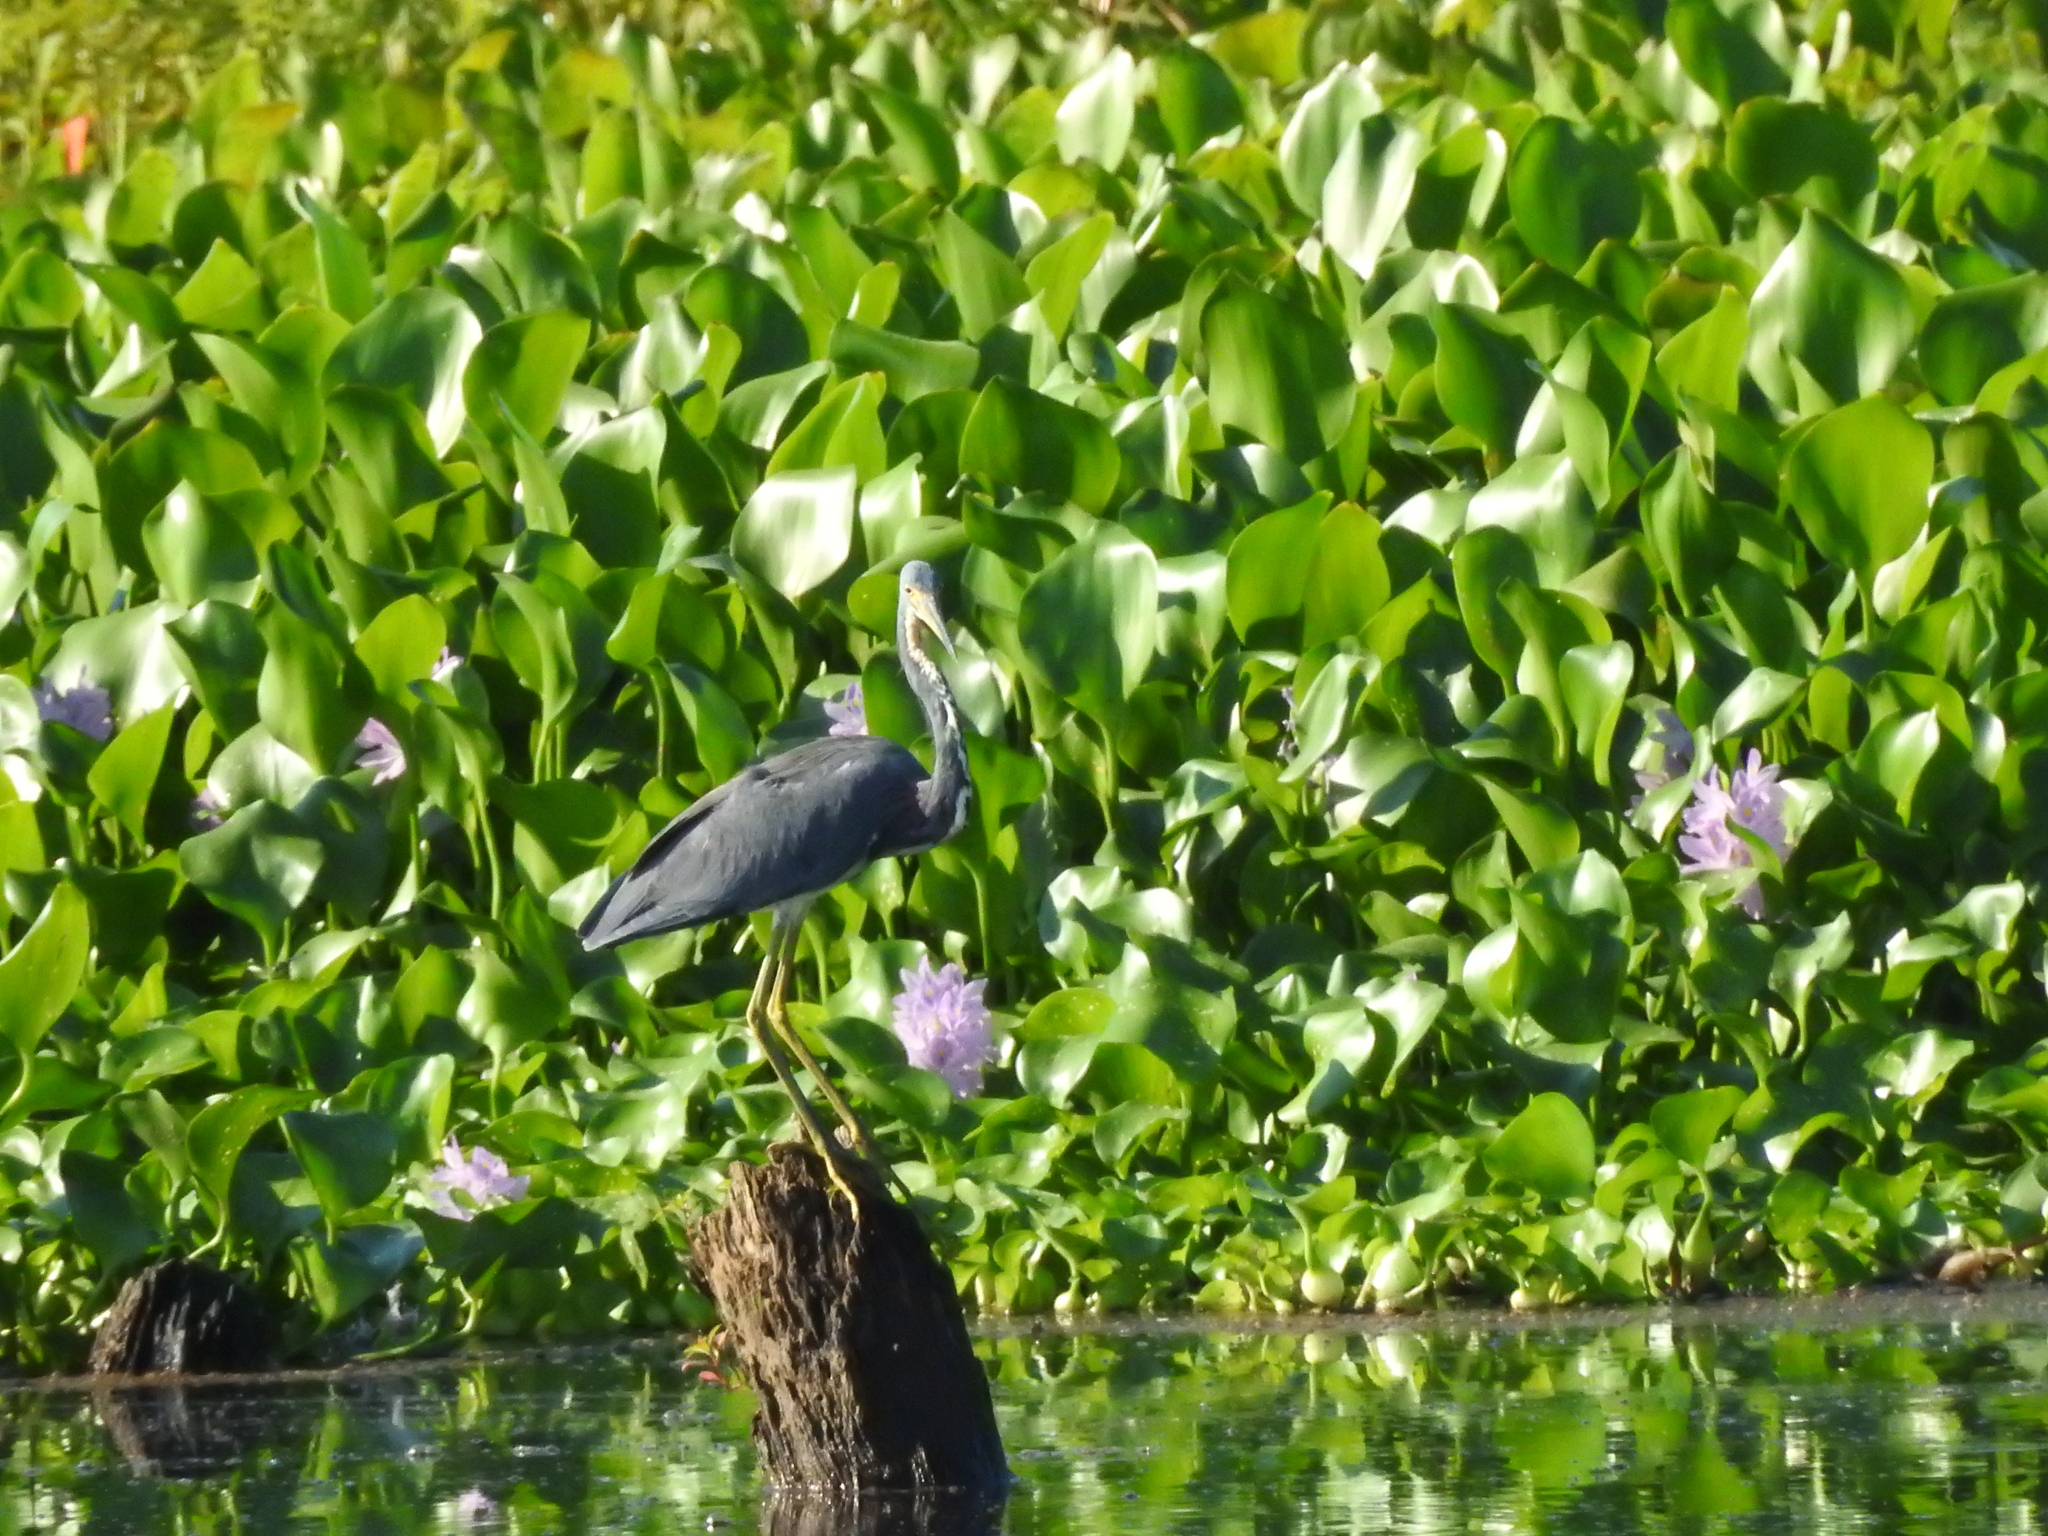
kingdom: Animalia
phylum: Chordata
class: Aves
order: Pelecaniformes
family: Ardeidae
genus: Egretta
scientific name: Egretta tricolor
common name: Tricolored heron
